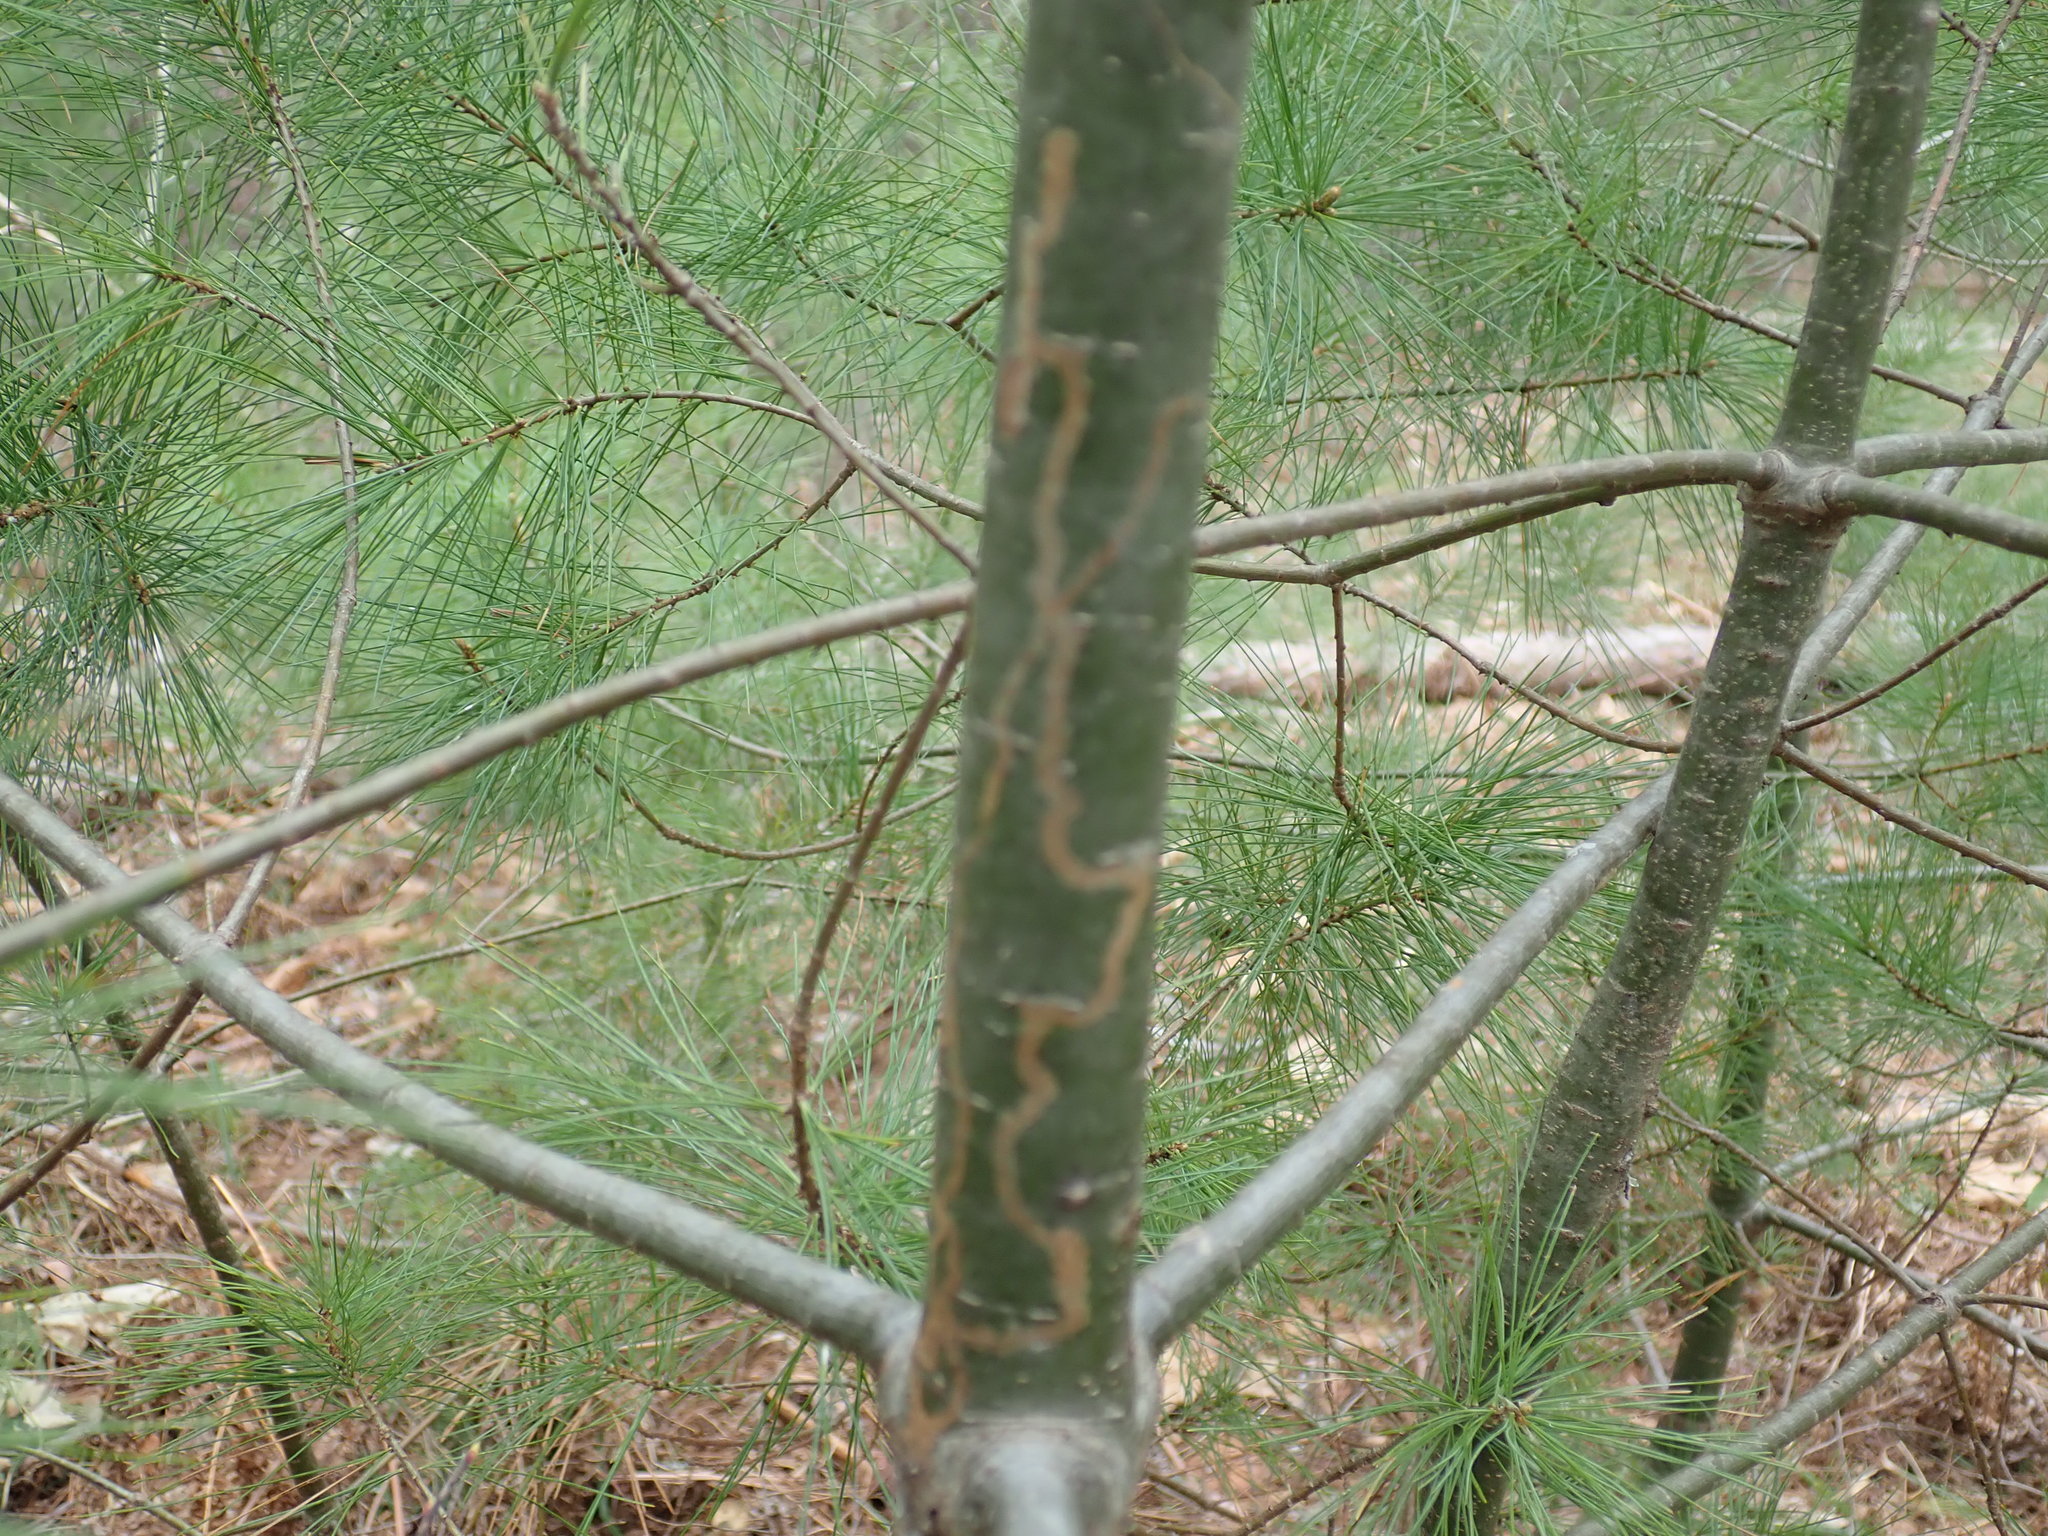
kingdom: Animalia
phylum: Arthropoda
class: Insecta
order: Lepidoptera
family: Gracillariidae
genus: Marmara
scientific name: Marmara fasciella
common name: White pine barkminer moth
